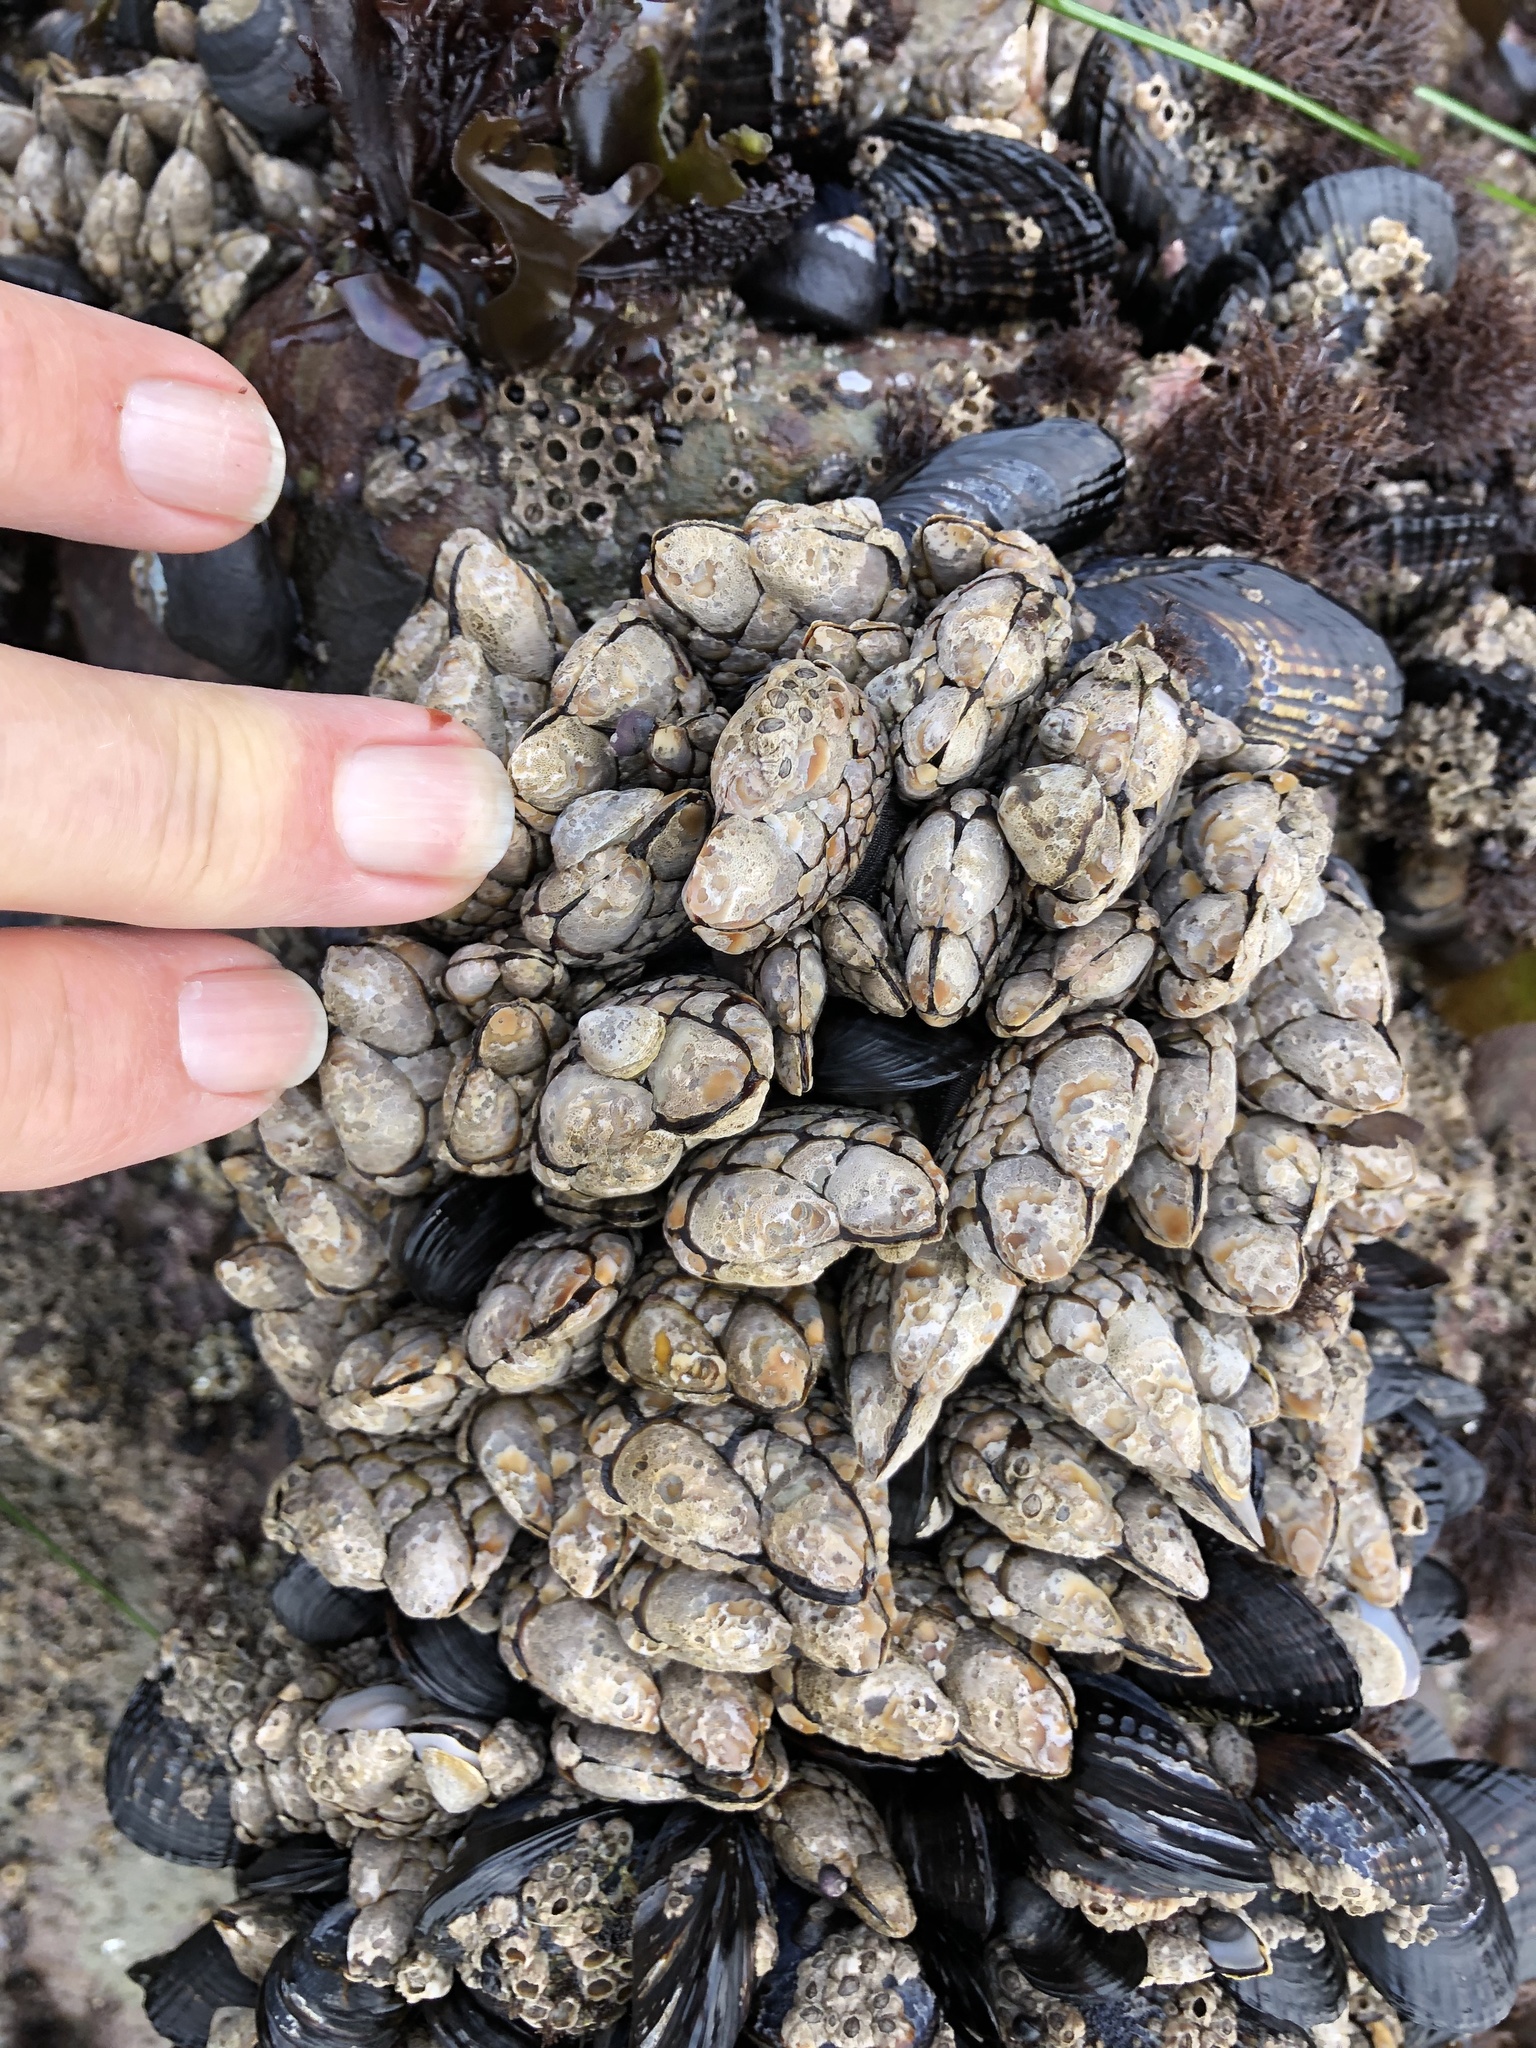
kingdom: Animalia
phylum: Arthropoda
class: Maxillopoda
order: Pedunculata
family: Pollicipedidae
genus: Pollicipes
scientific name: Pollicipes polymerus
